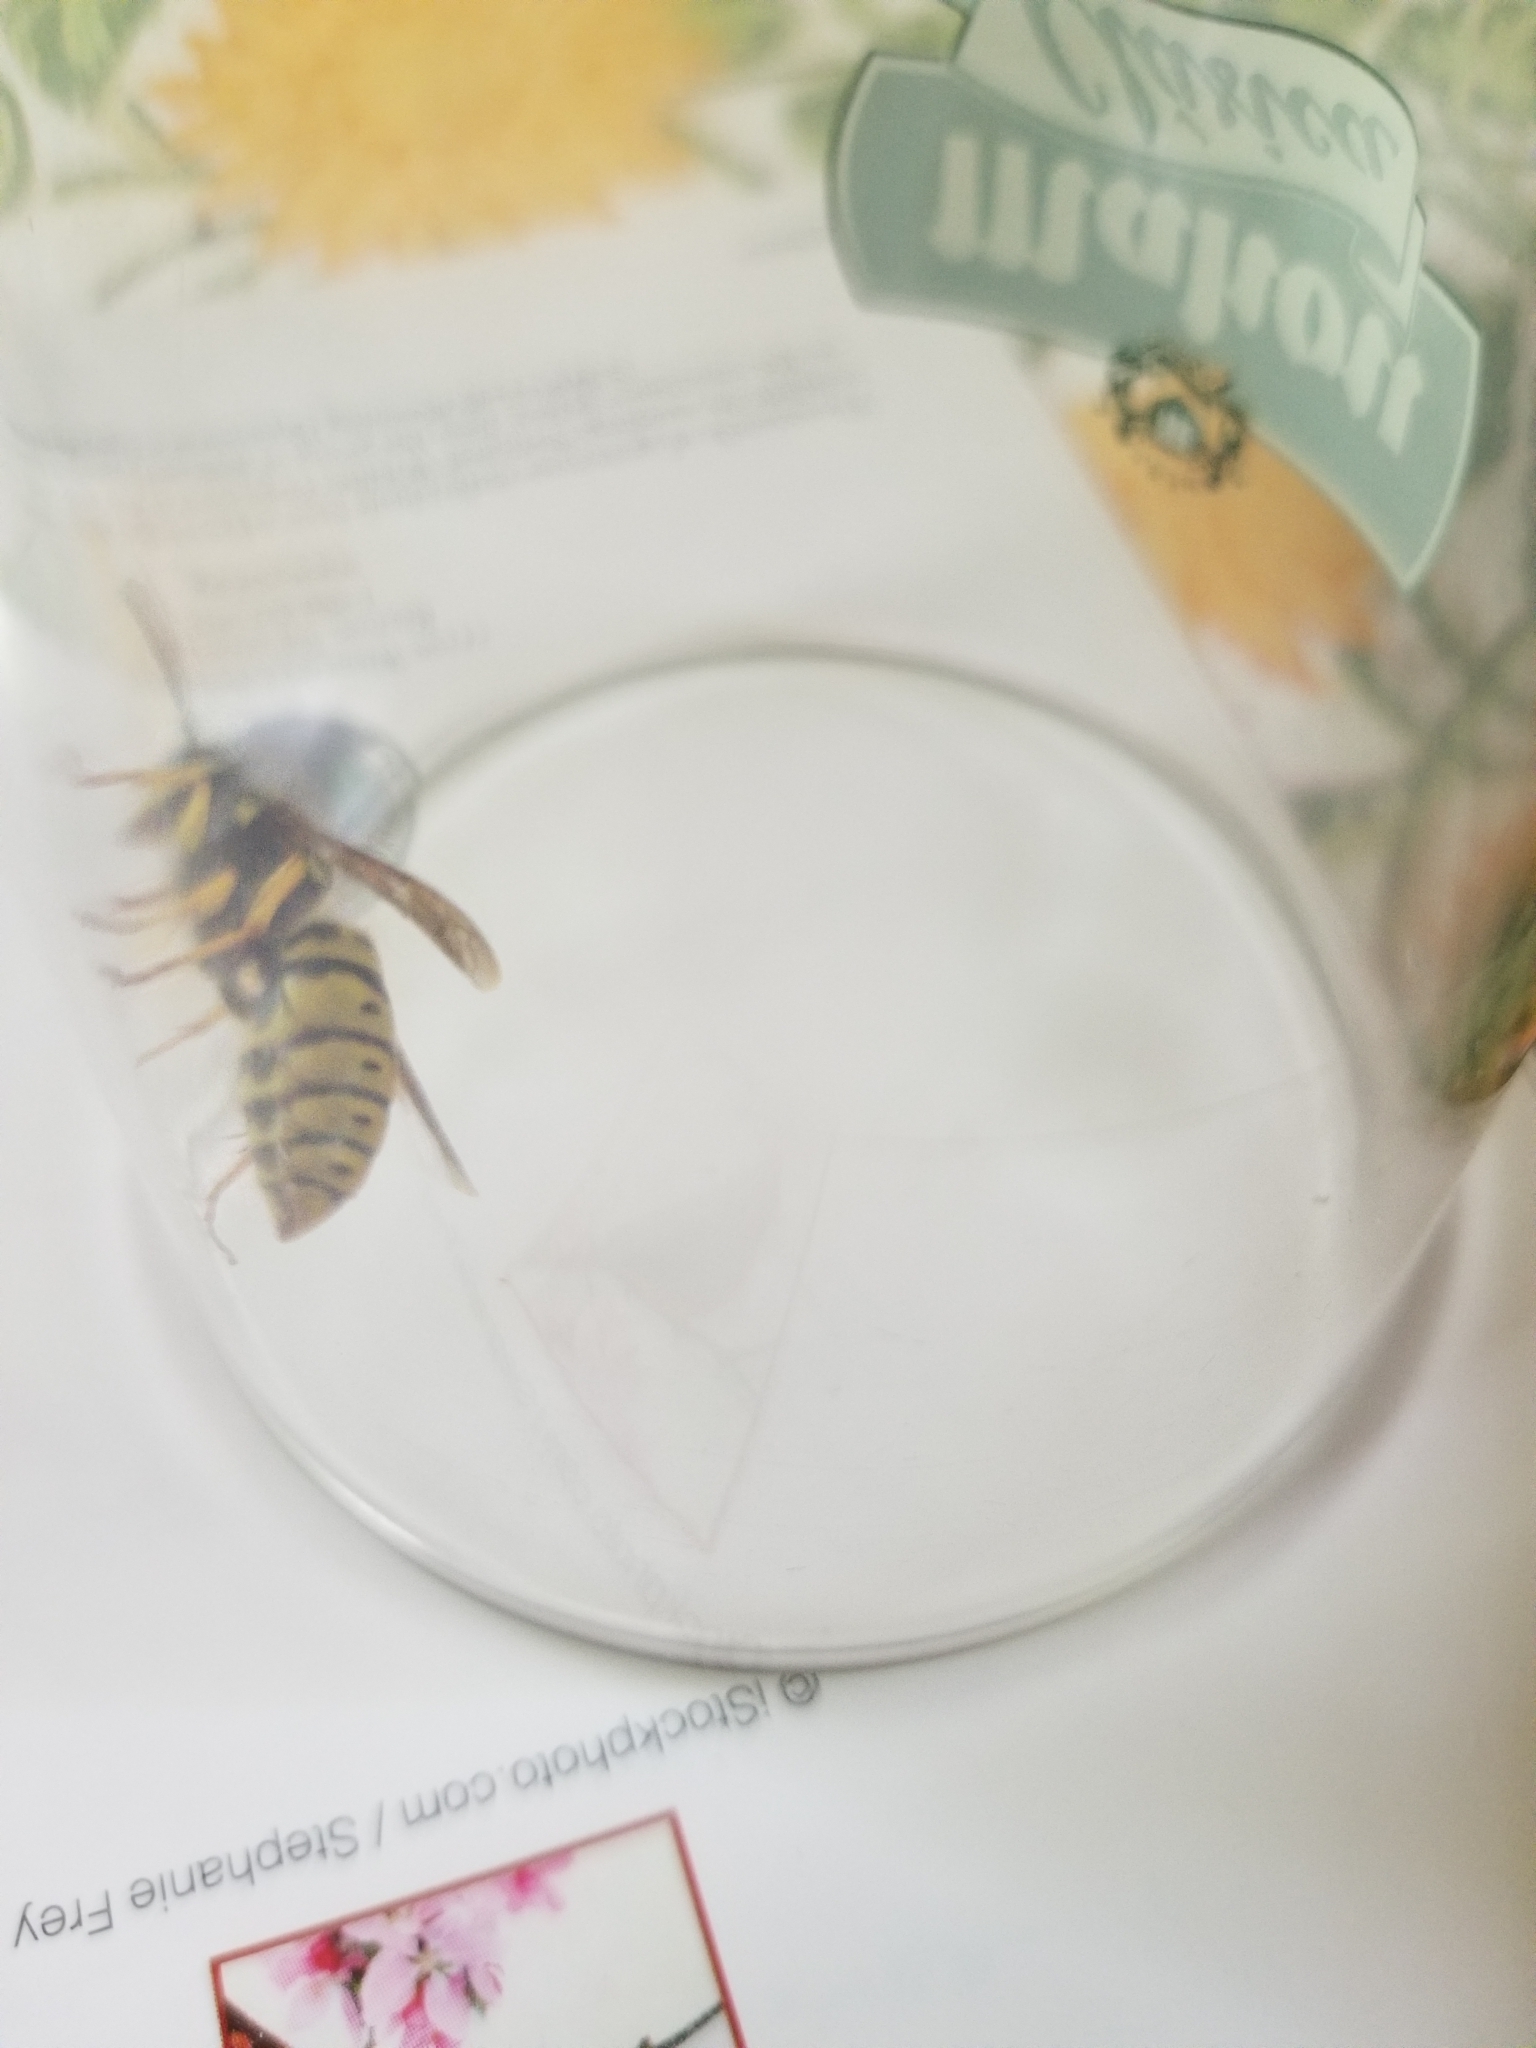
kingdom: Animalia
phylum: Arthropoda
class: Insecta
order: Hymenoptera
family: Vespidae
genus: Vespula
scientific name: Vespula maculifrons
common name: Eastern yellowjacket
